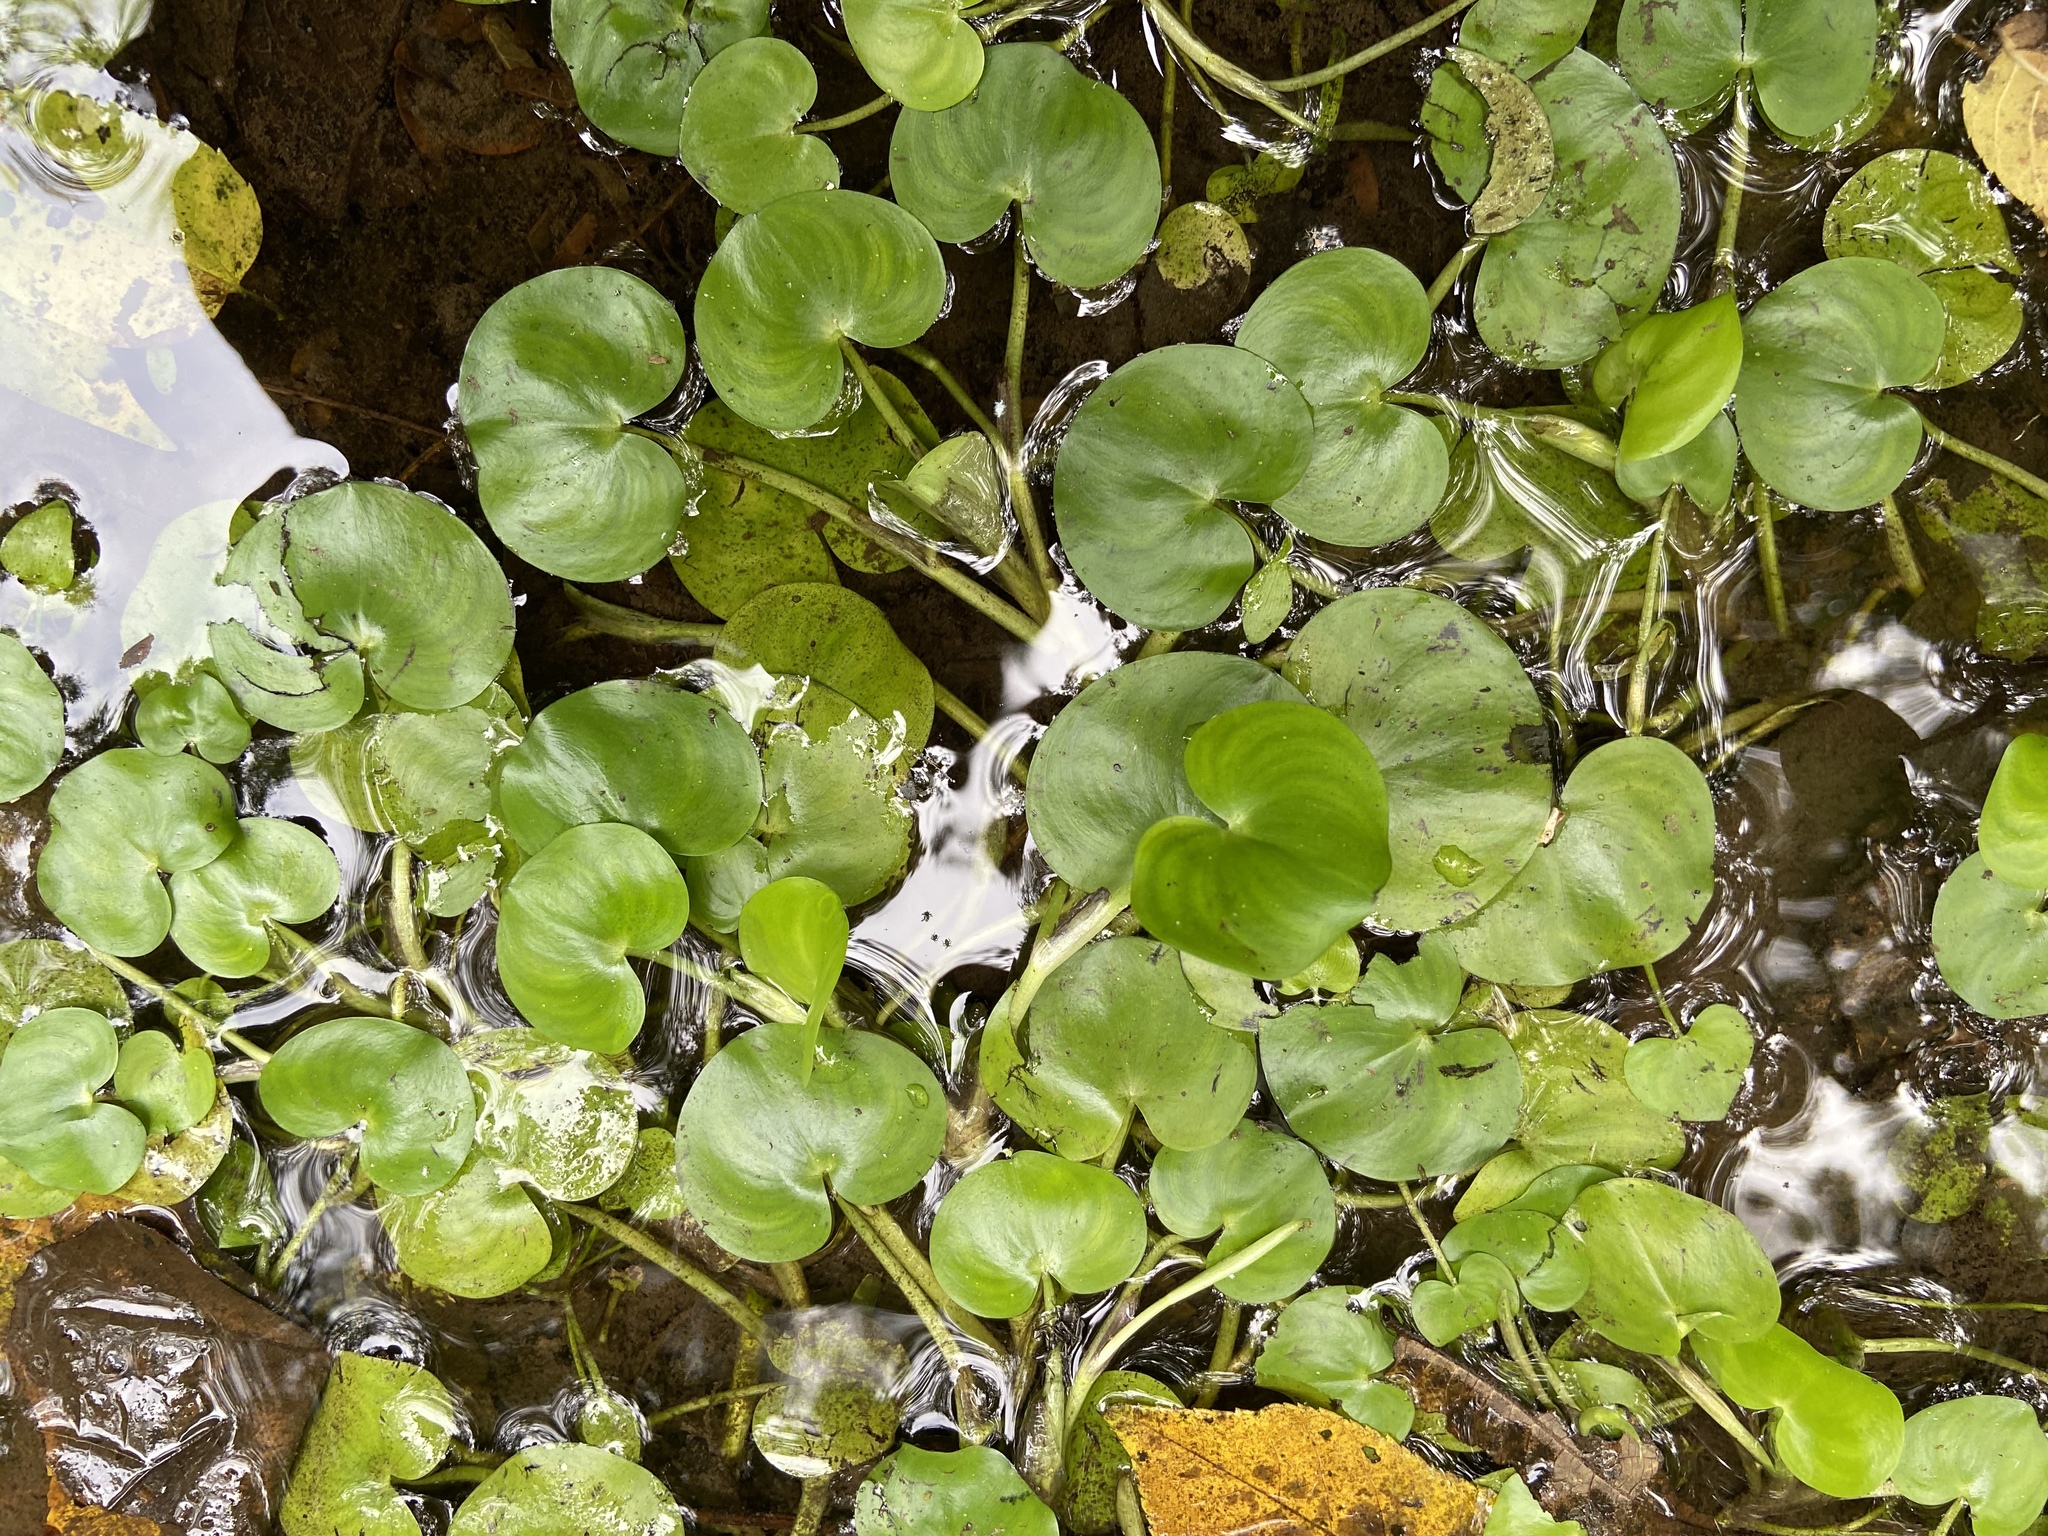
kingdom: Plantae
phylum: Tracheophyta
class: Liliopsida
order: Commelinales
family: Pontederiaceae
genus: Heteranthera
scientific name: Heteranthera reniformis
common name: Kidneyleaf mudplantain
